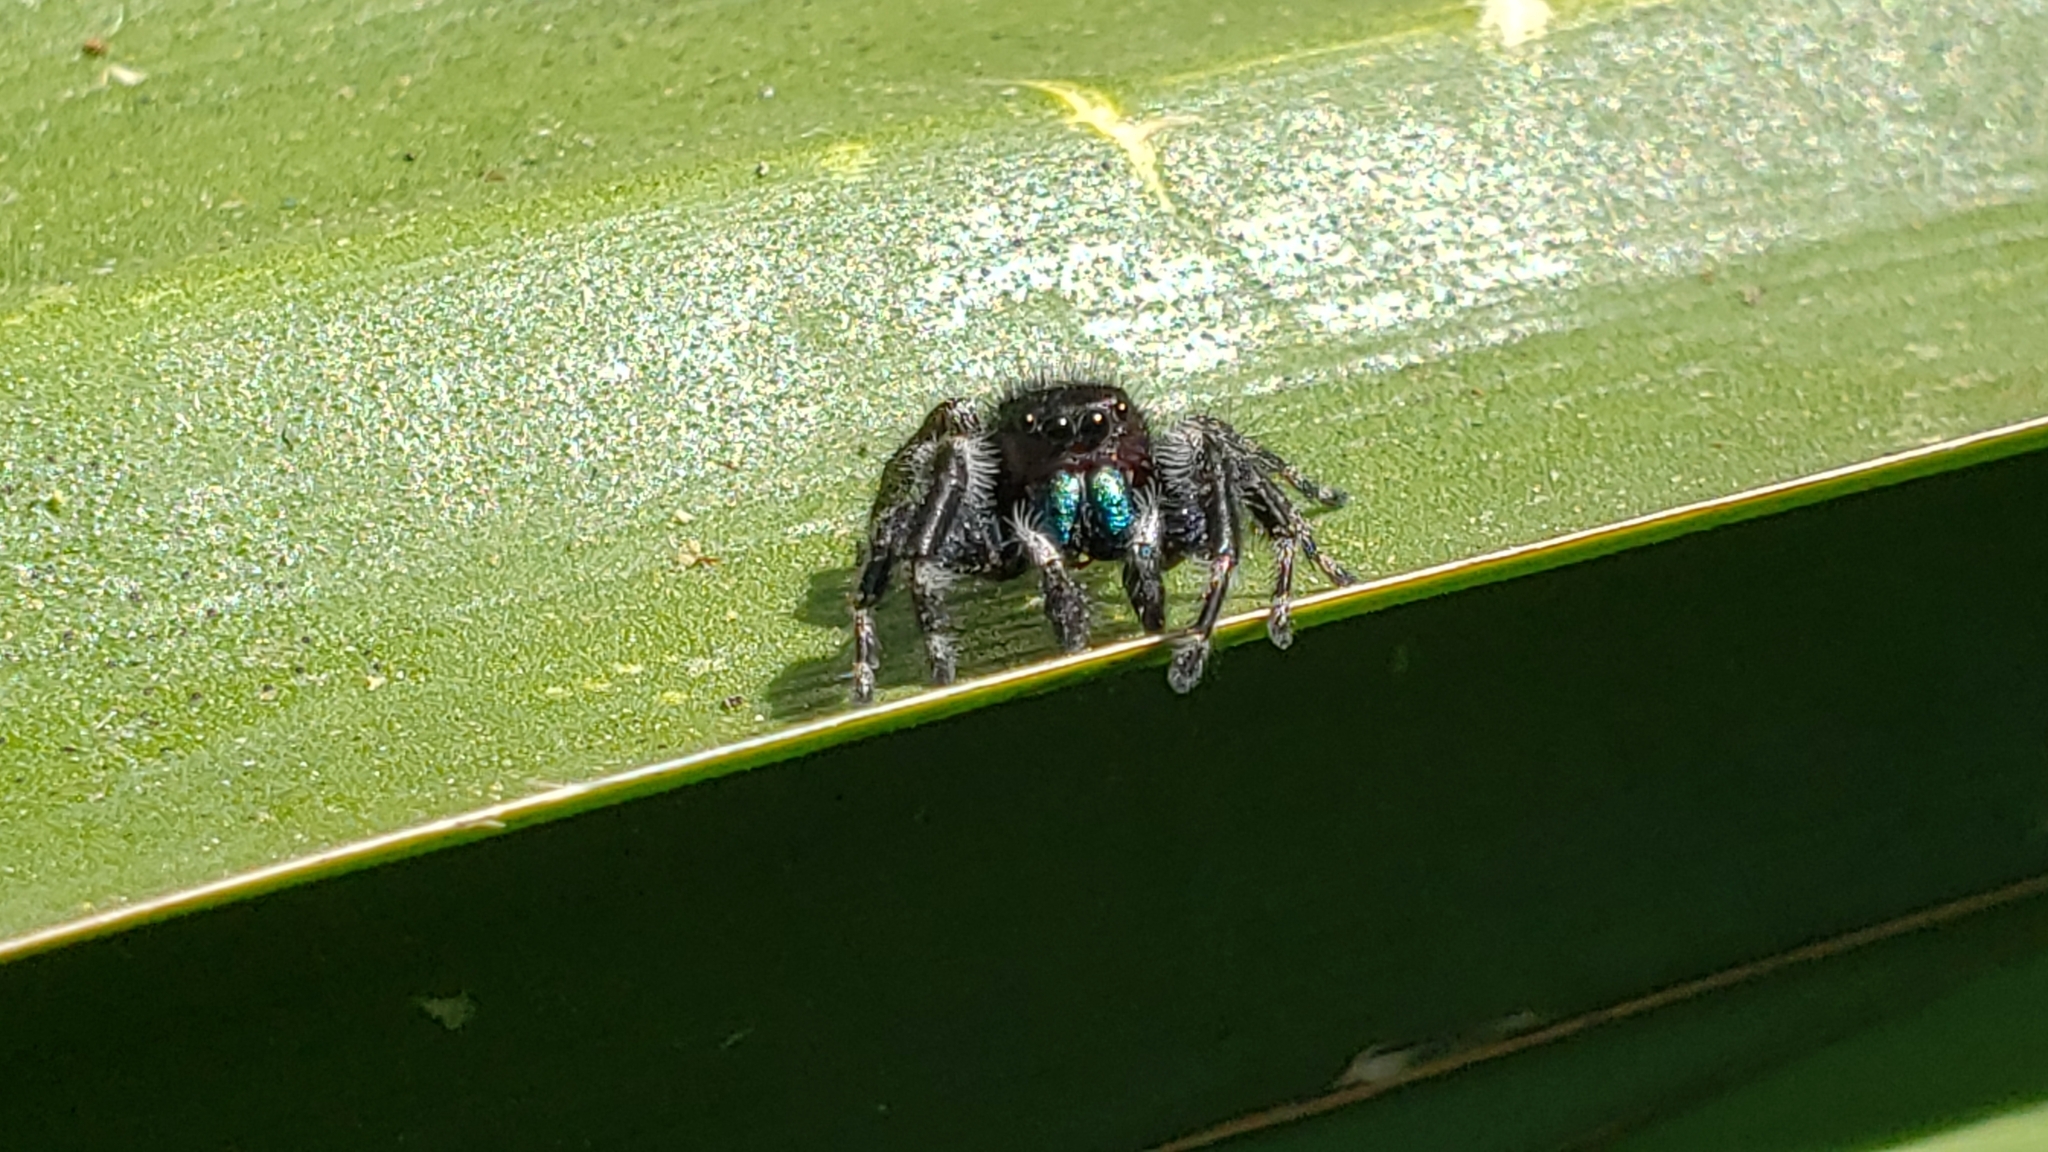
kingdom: Animalia
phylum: Arthropoda
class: Arachnida
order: Araneae
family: Salticidae
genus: Phidippus
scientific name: Phidippus audax
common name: Bold jumper
